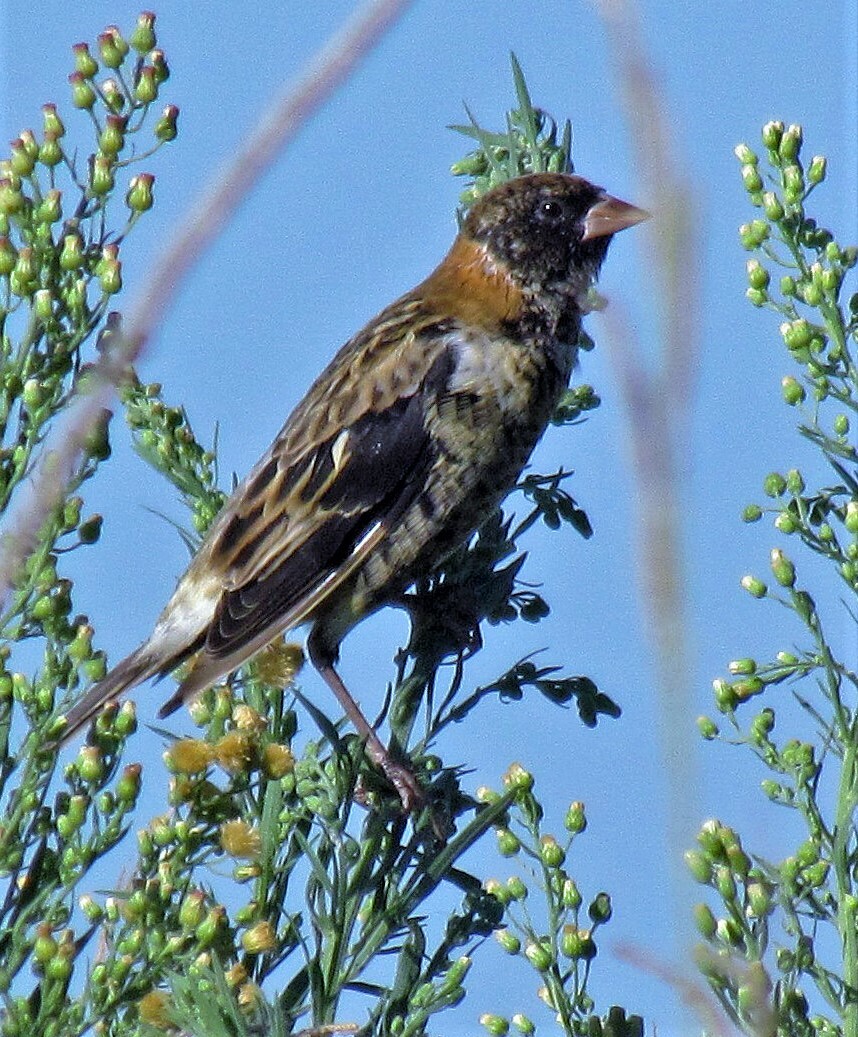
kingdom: Animalia
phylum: Chordata
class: Aves
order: Passeriformes
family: Icteridae
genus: Dolichonyx
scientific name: Dolichonyx oryzivorus
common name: Bobolink
